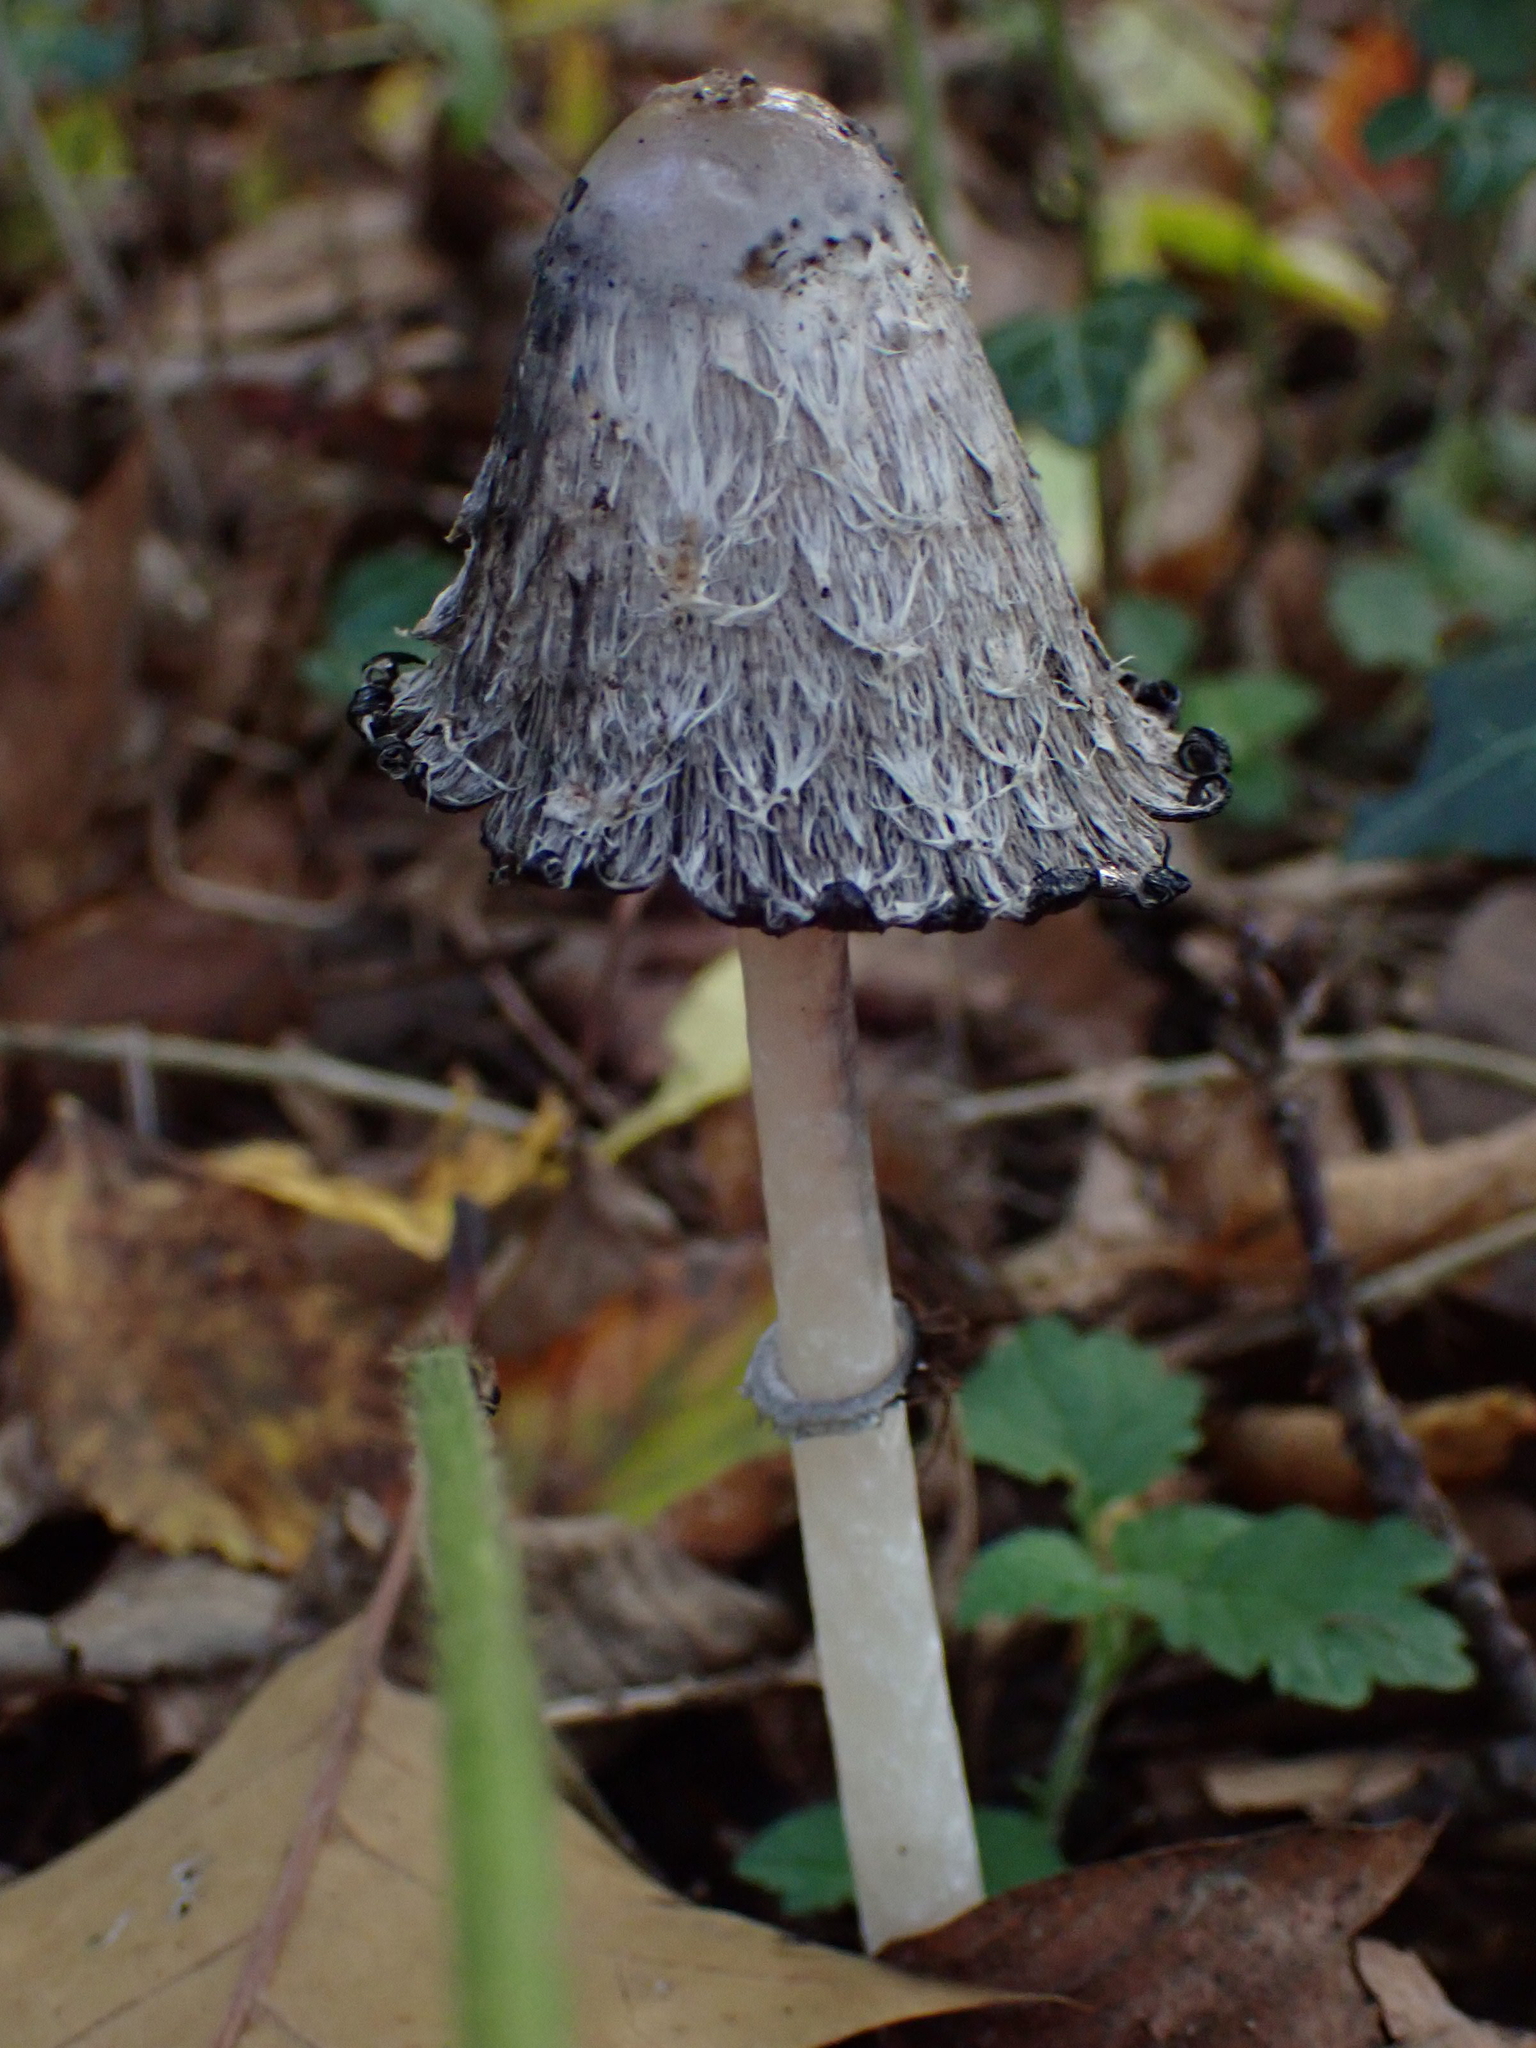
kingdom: Fungi
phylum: Basidiomycota
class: Agaricomycetes
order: Agaricales
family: Agaricaceae
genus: Coprinus
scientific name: Coprinus comatus
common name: Lawyer's wig
